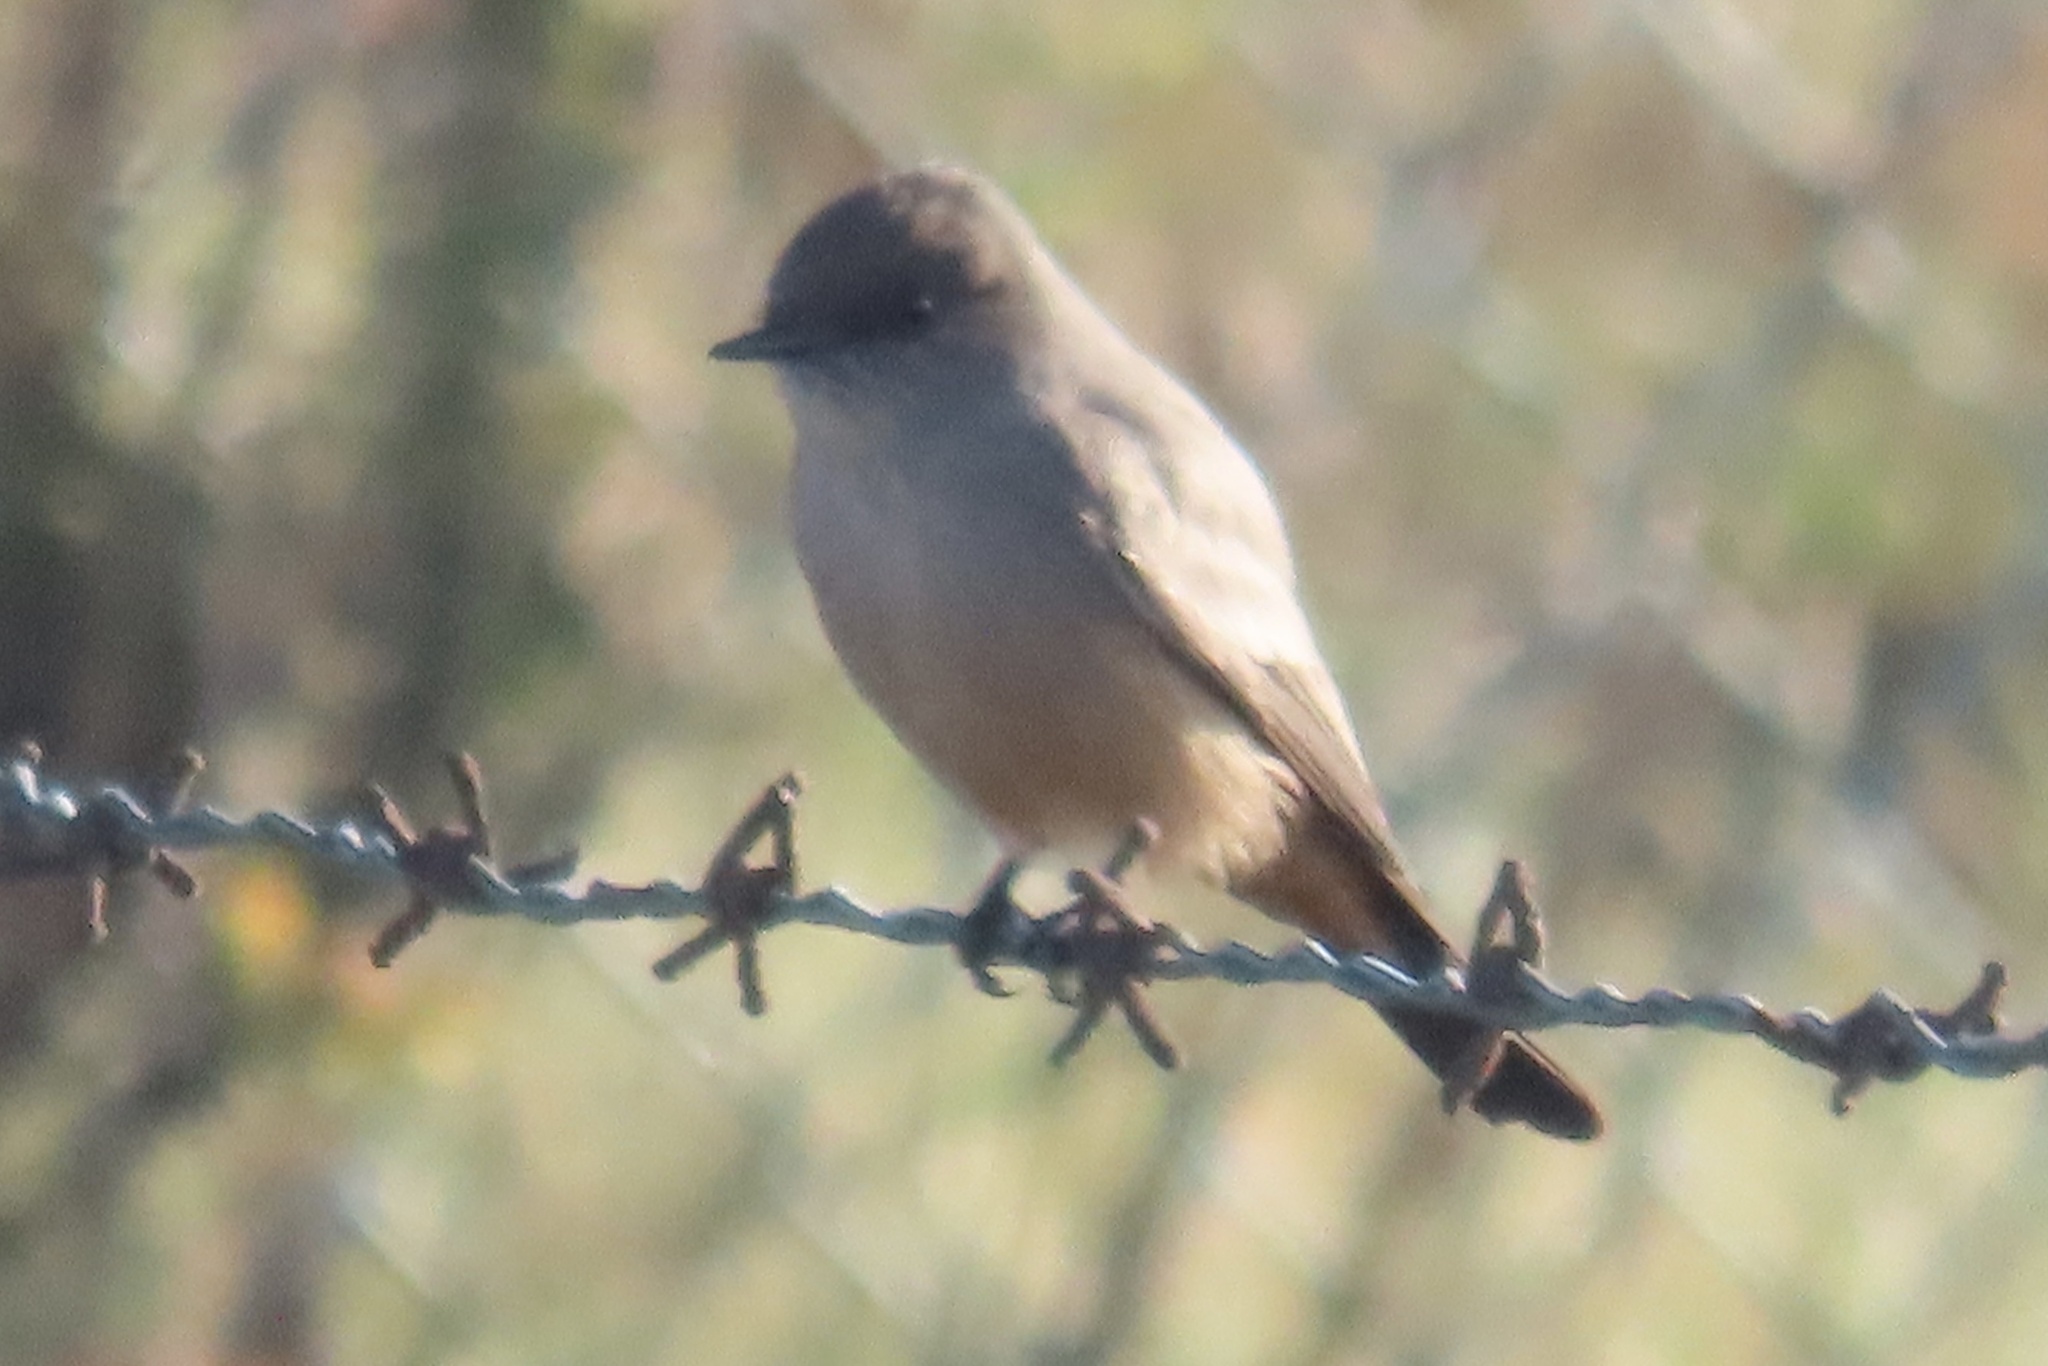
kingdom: Animalia
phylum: Chordata
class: Aves
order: Passeriformes
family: Tyrannidae
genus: Sayornis
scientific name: Sayornis saya
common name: Say's phoebe
